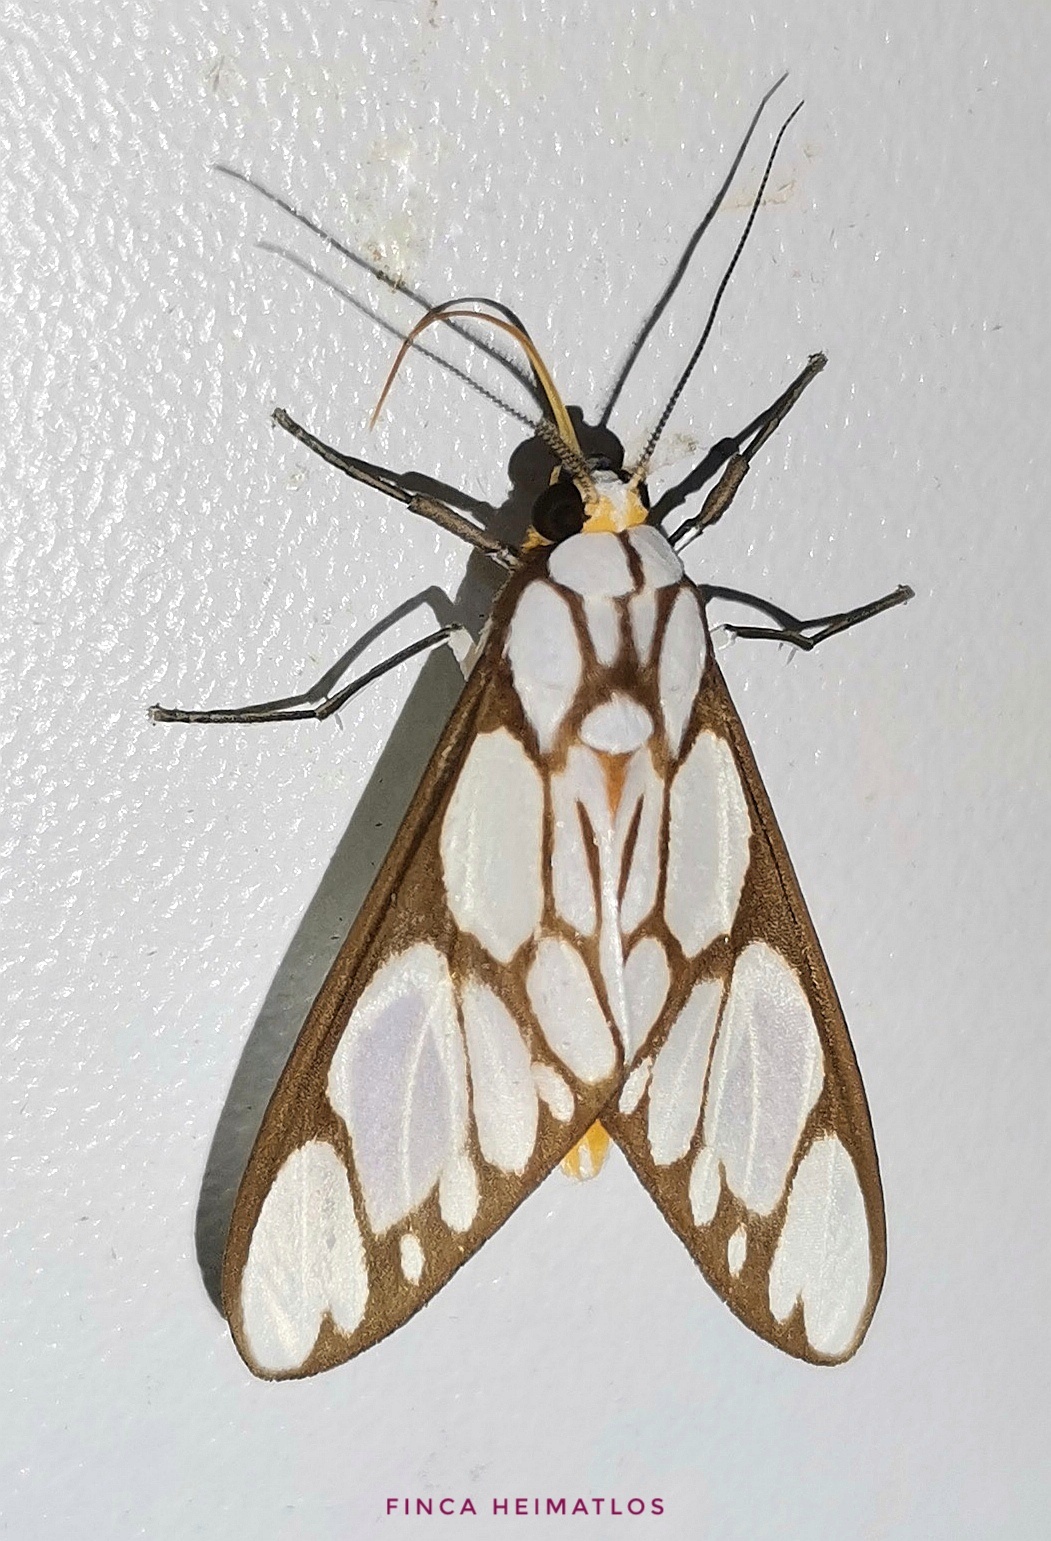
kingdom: Animalia
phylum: Arthropoda
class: Insecta
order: Lepidoptera
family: Erebidae
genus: Robinsonia
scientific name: Robinsonia sanea
